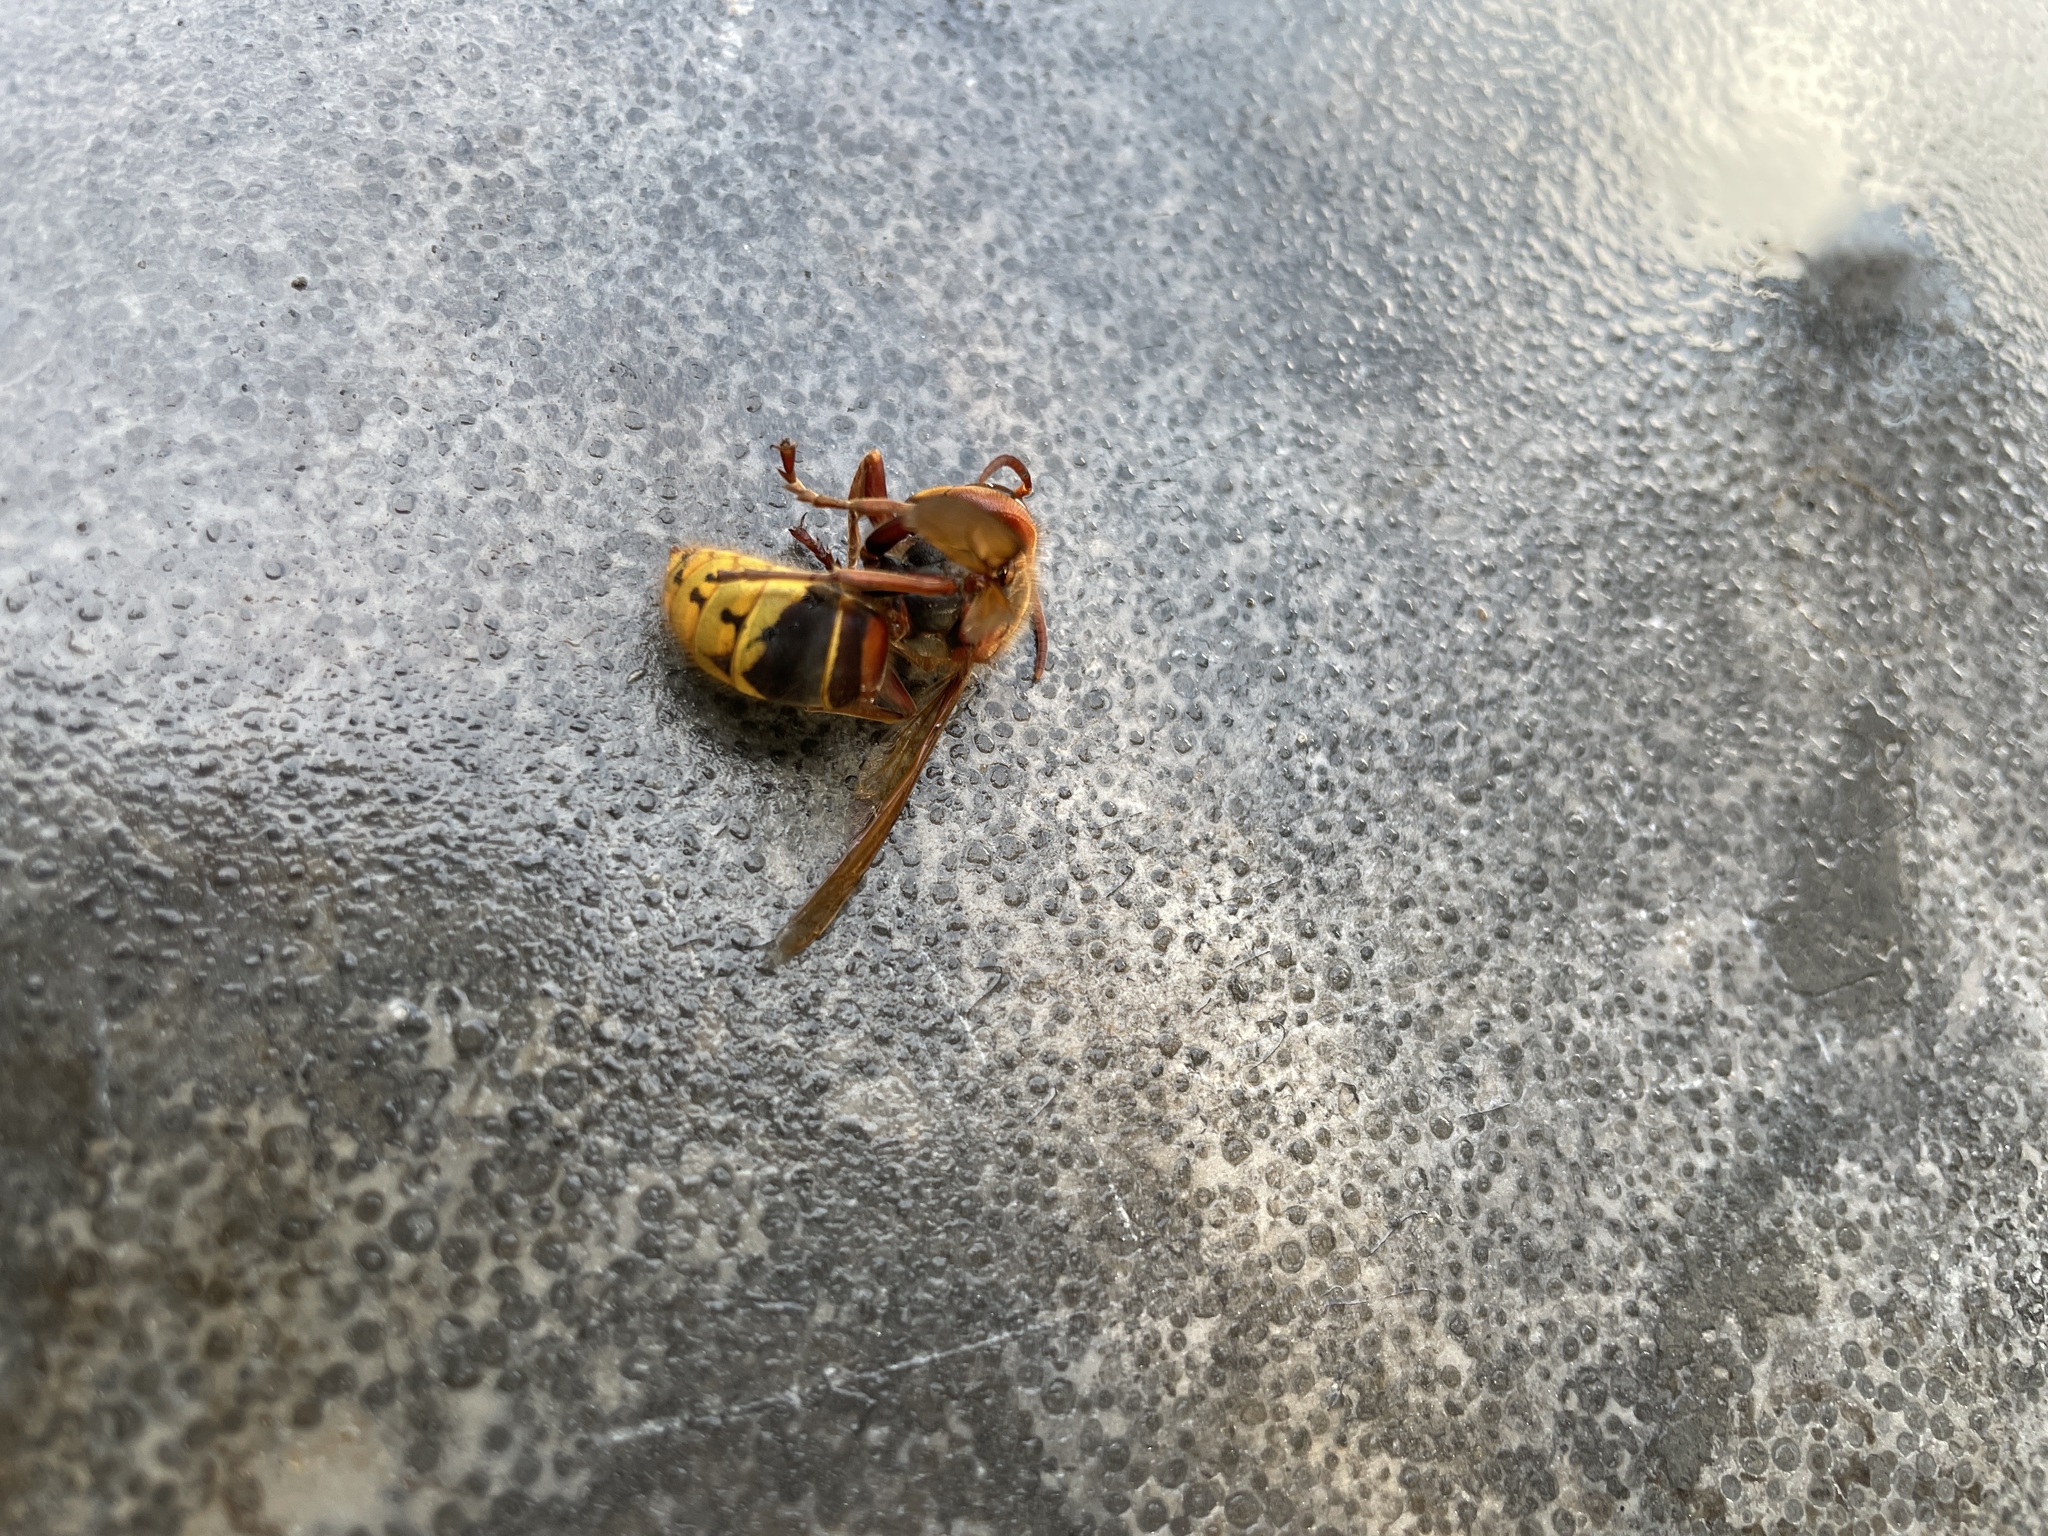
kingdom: Animalia
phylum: Arthropoda
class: Insecta
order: Hymenoptera
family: Vespidae
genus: Vespa
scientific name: Vespa crabro
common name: Hornet
